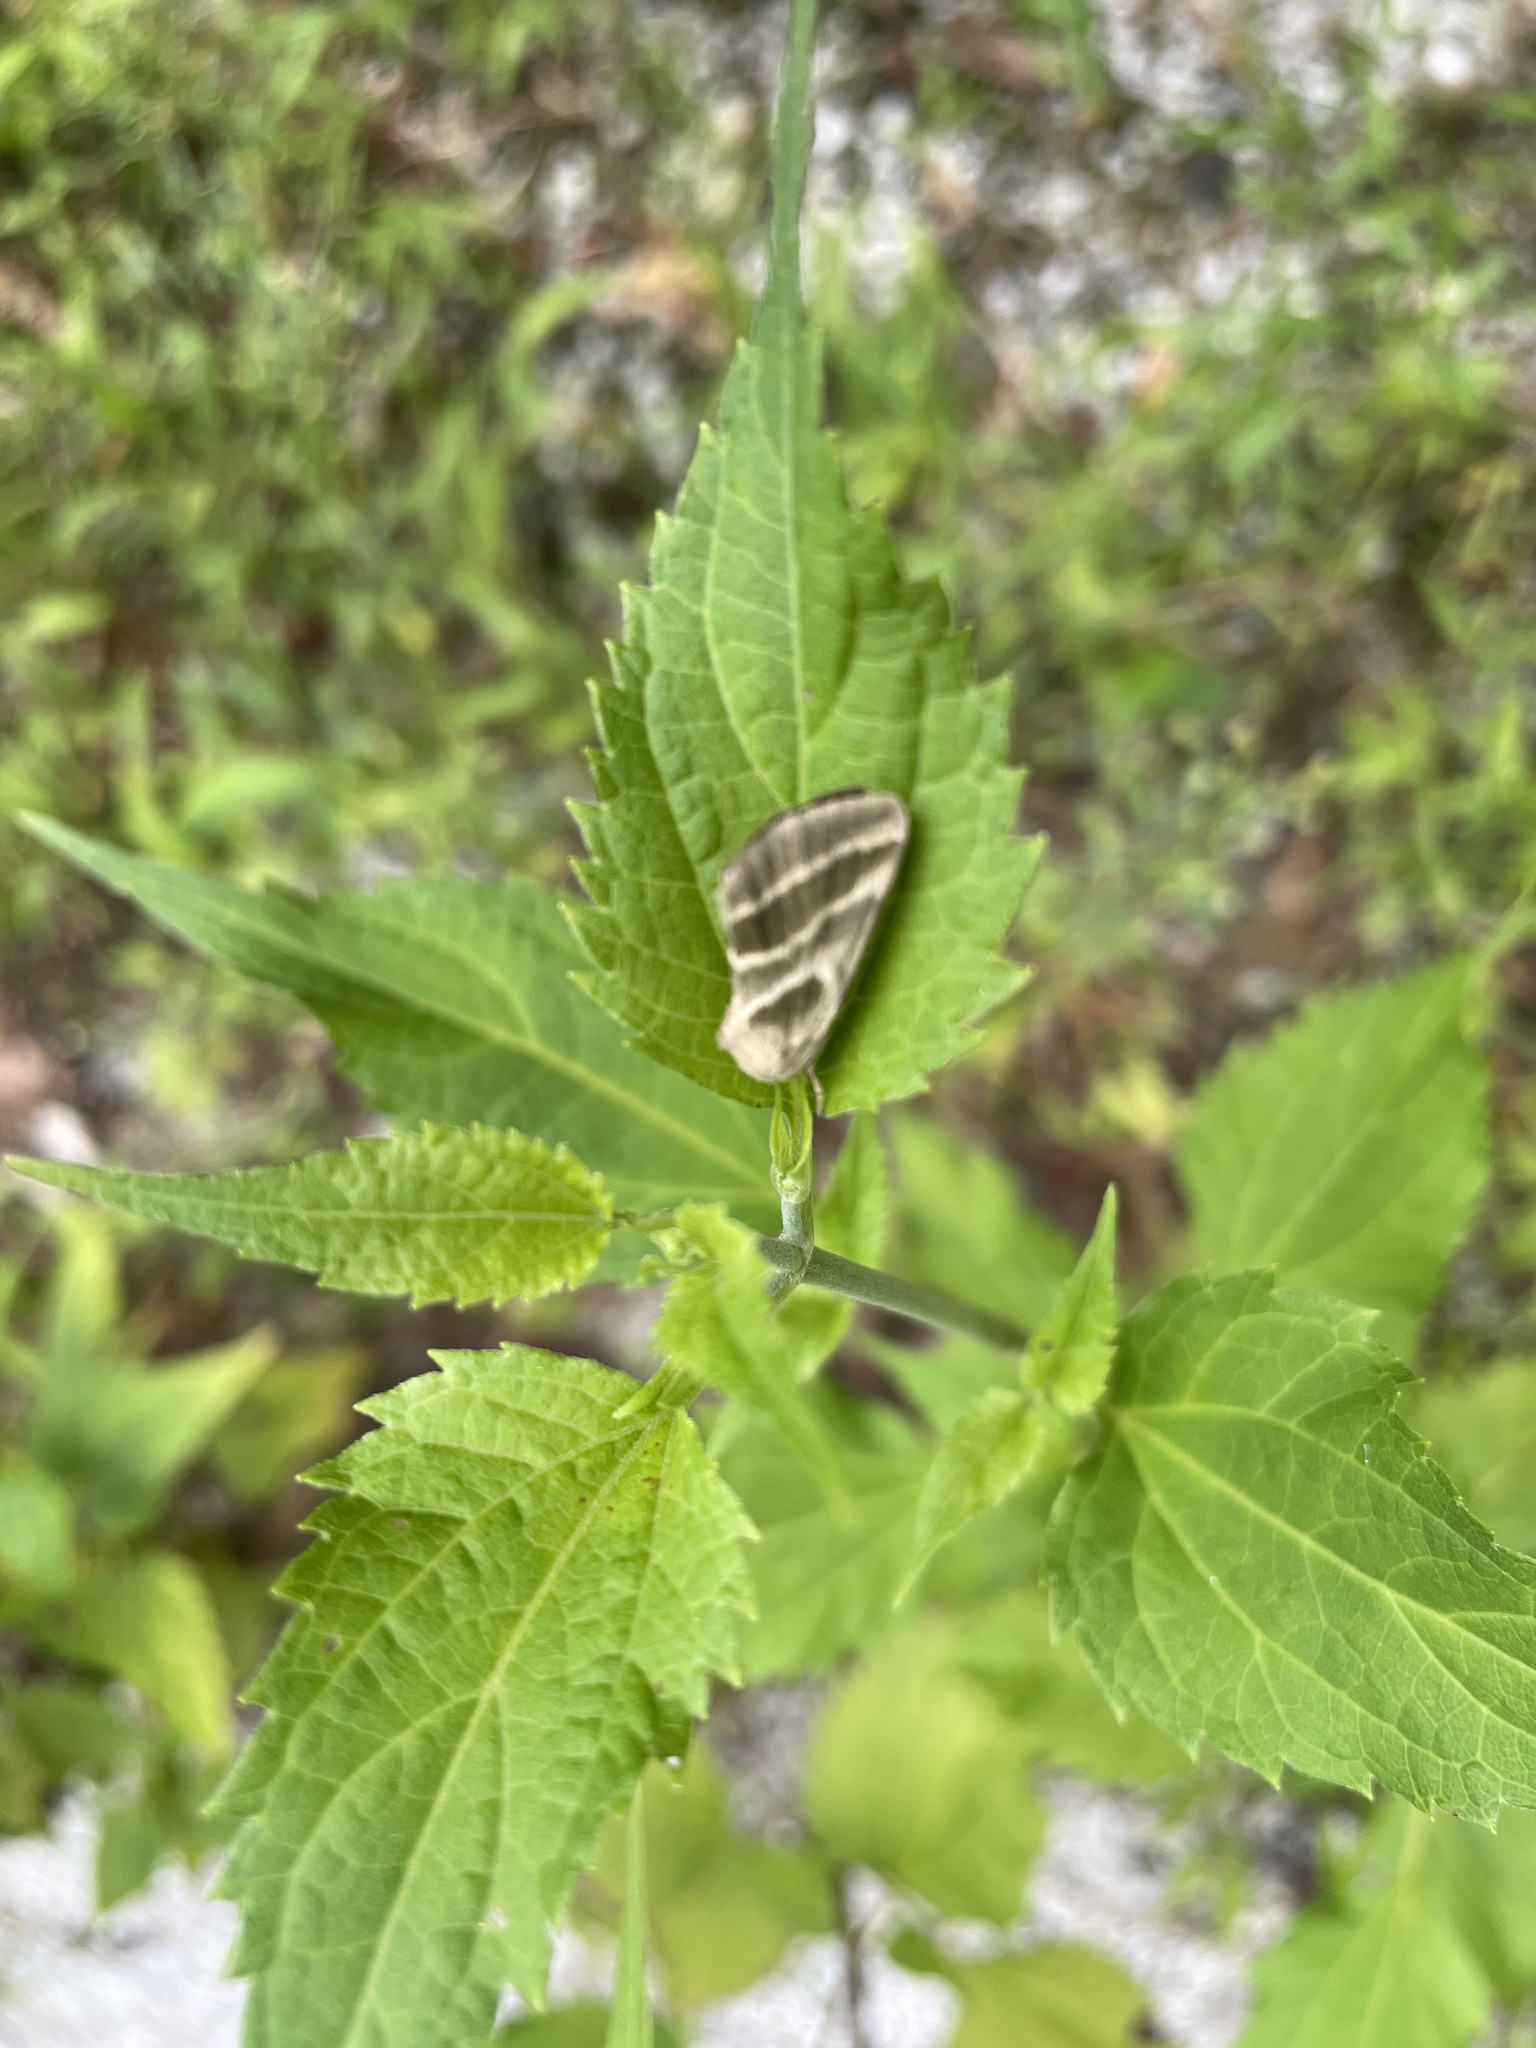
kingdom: Animalia
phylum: Arthropoda
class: Insecta
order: Lepidoptera
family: Noctuidae
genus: Schinia
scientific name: Schinia trifascia
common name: Three-lined flower moth
